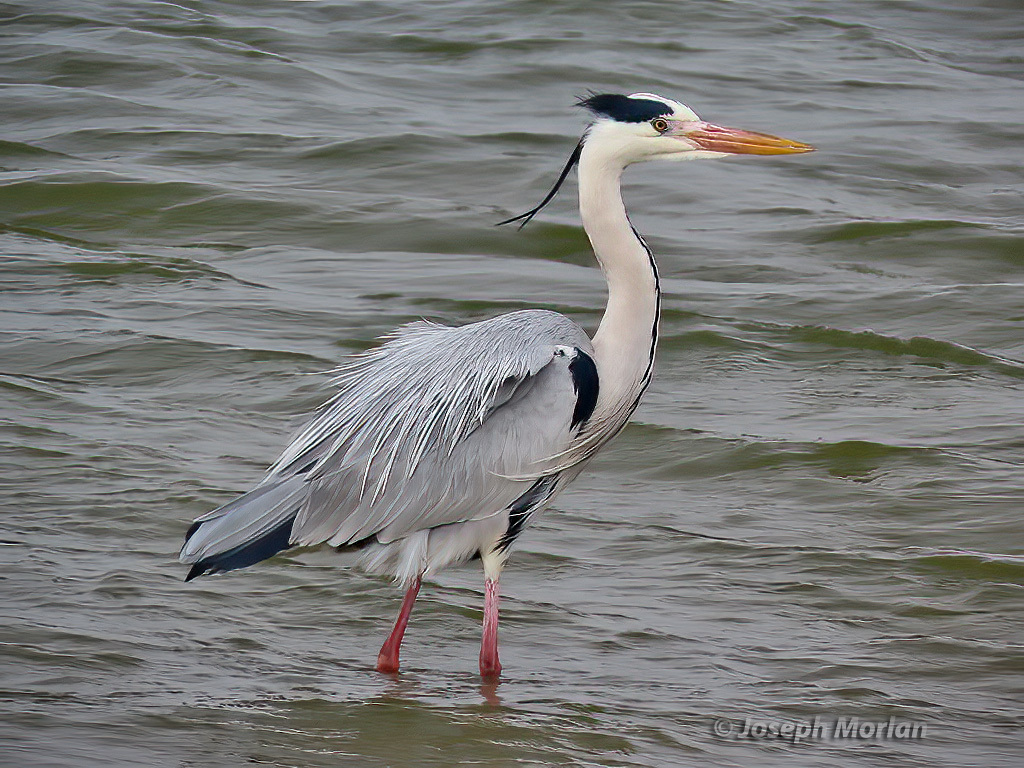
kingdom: Animalia
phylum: Chordata
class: Aves
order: Pelecaniformes
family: Ardeidae
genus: Ardea
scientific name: Ardea cinerea
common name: Grey heron
